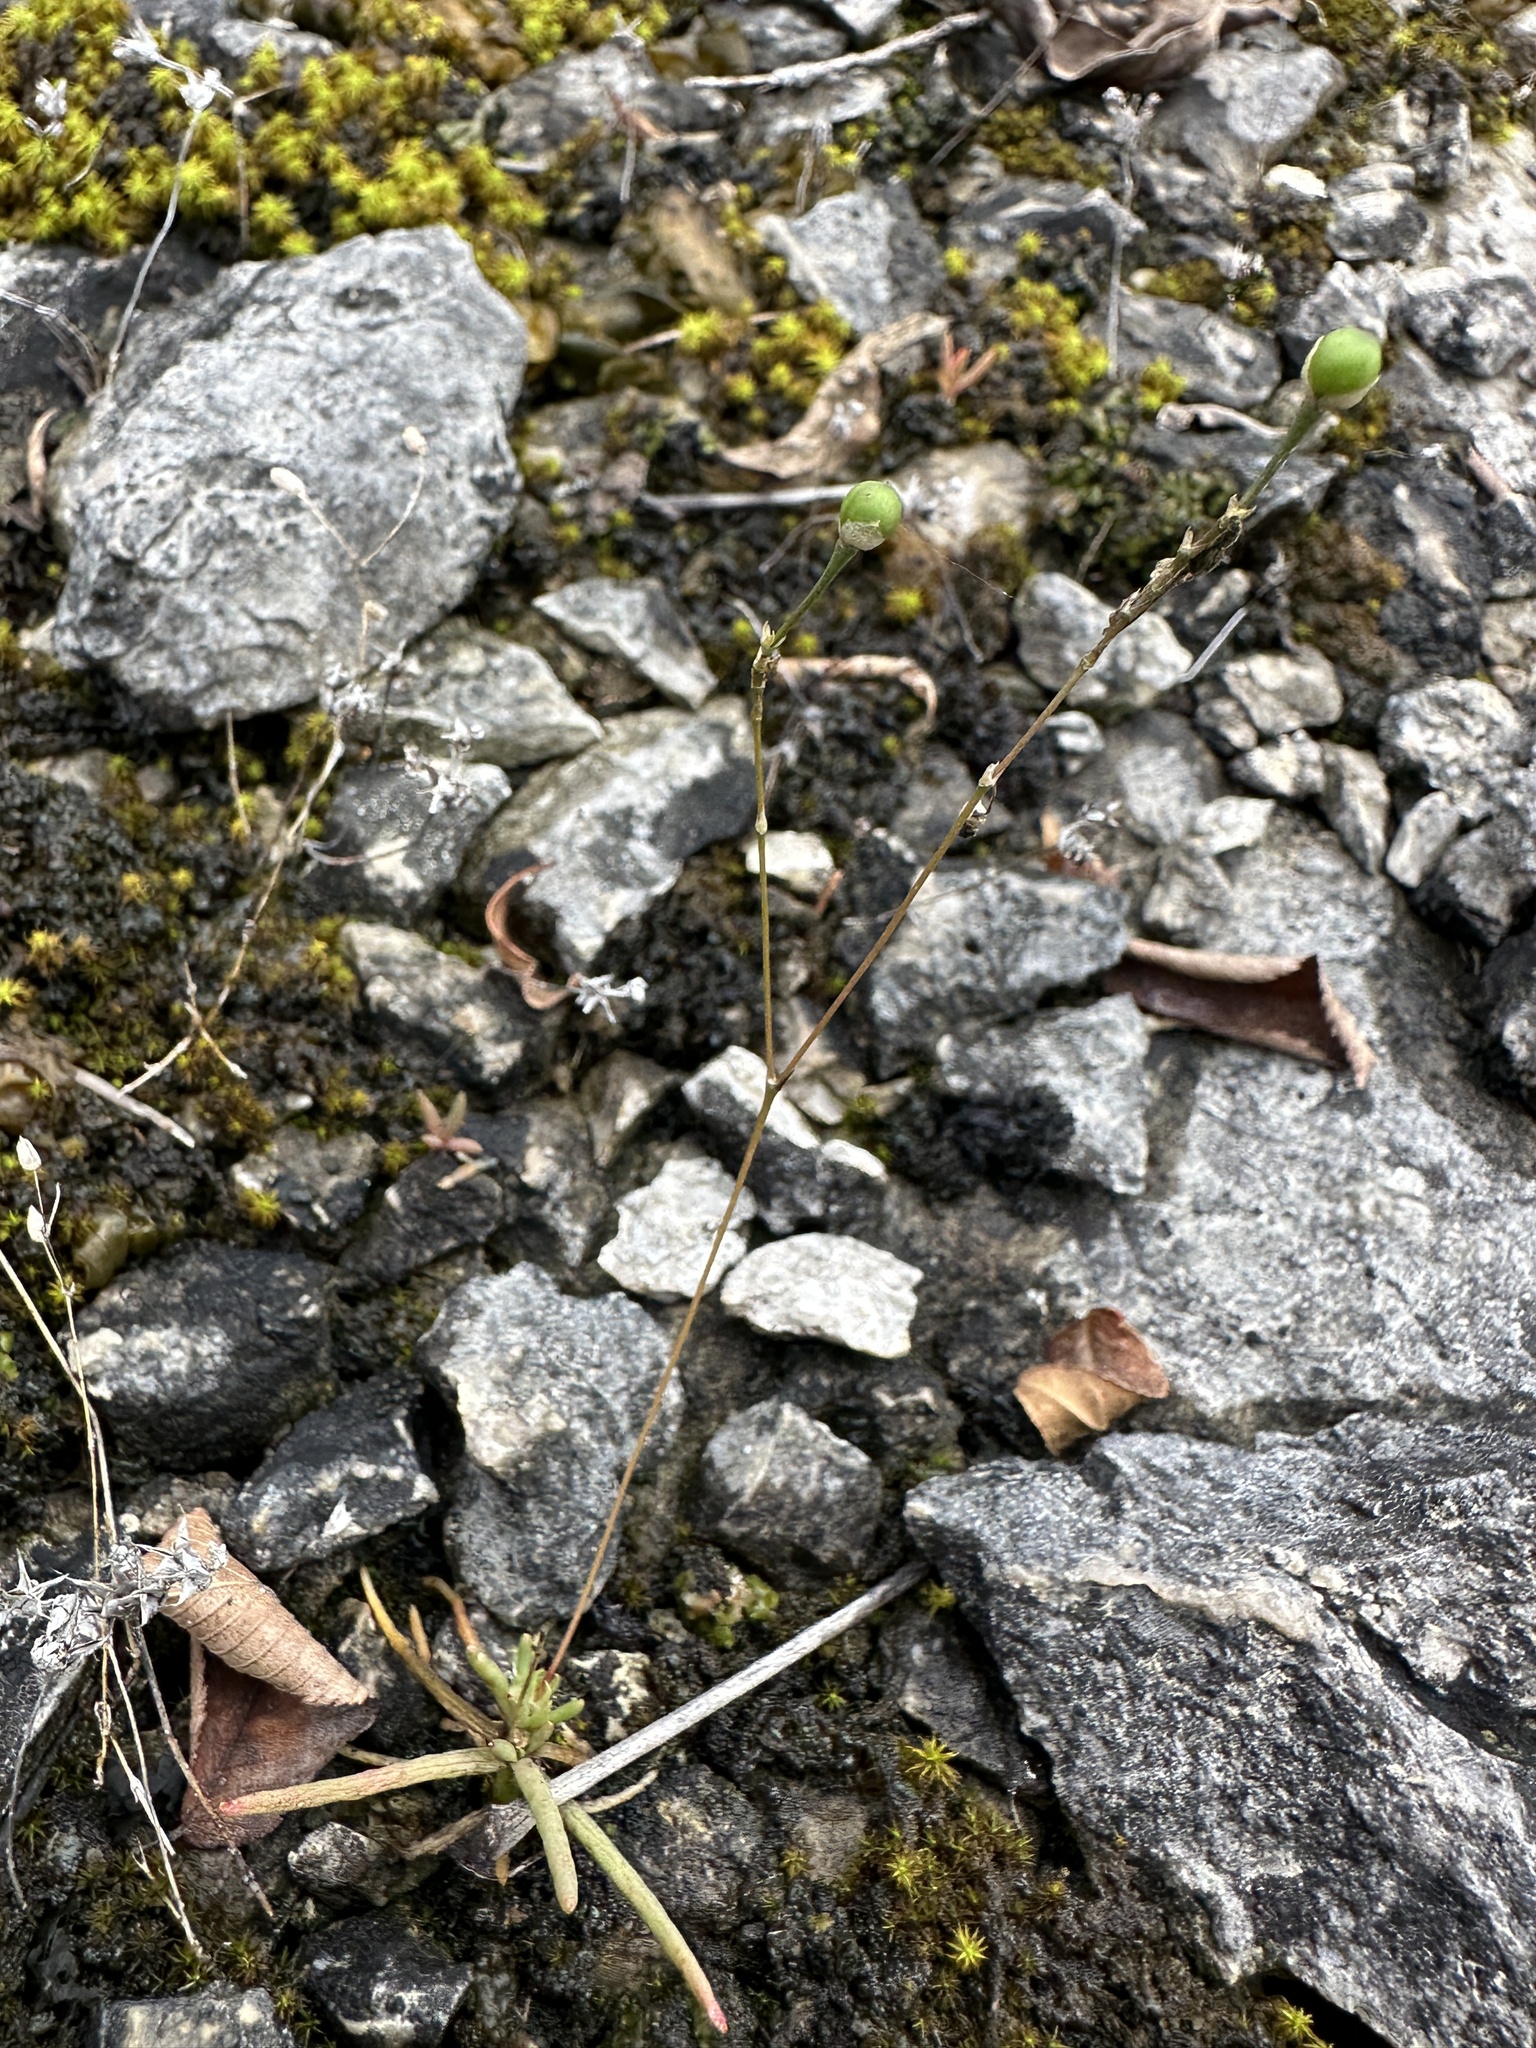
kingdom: Plantae
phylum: Tracheophyta
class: Magnoliopsida
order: Caryophyllales
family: Montiaceae
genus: Phemeranthus
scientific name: Phemeranthus calcaricus
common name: Limestone fameflower
